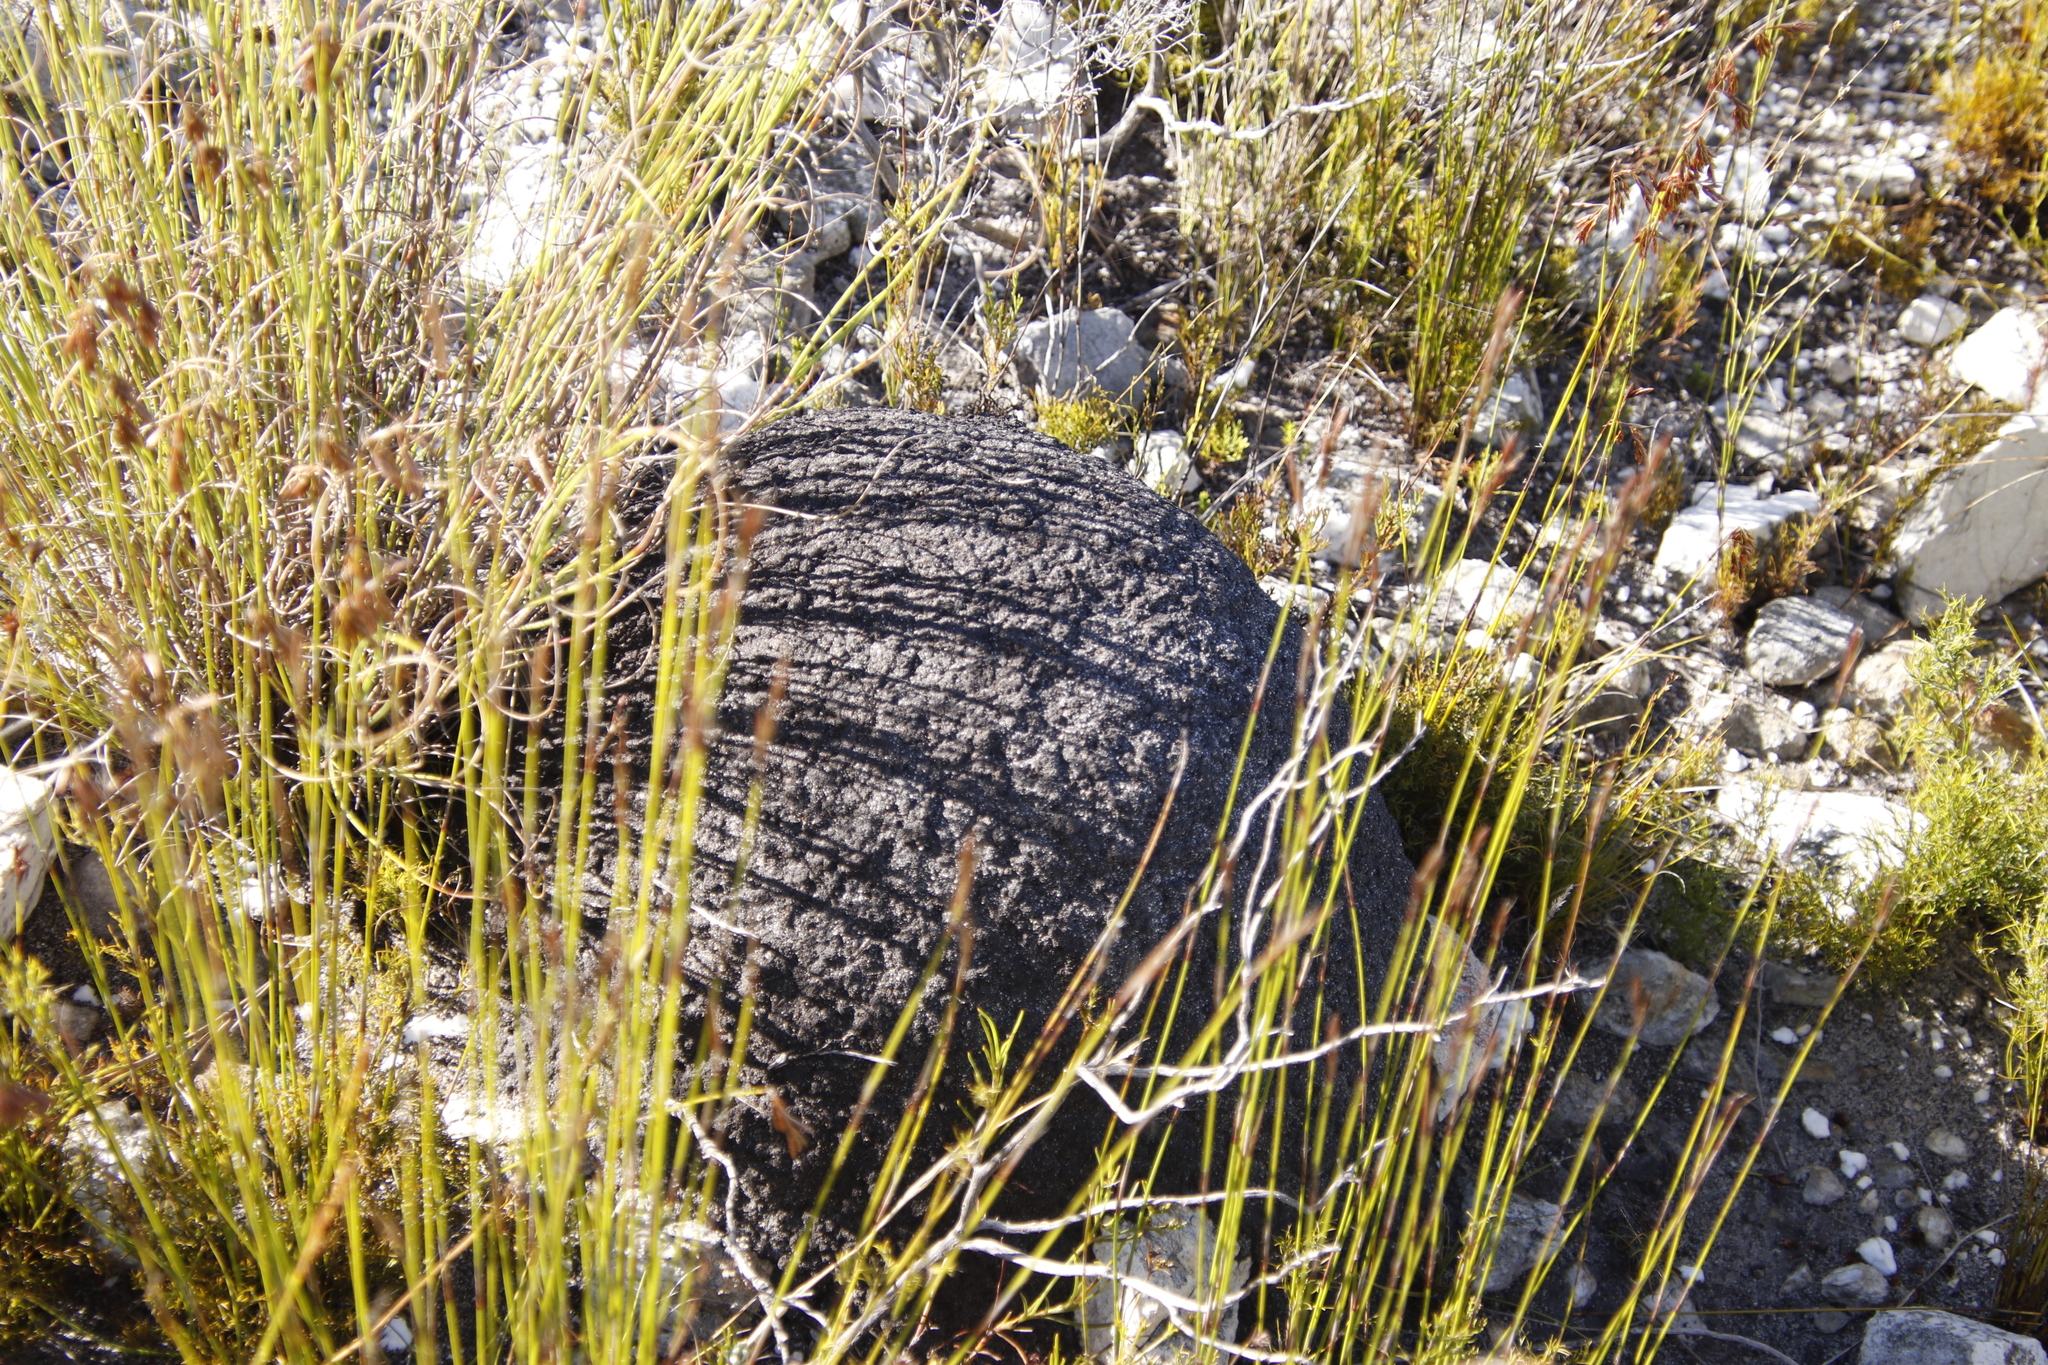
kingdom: Animalia
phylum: Arthropoda
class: Insecta
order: Blattodea
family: Termitidae
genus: Amitermes
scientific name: Amitermes hastatus
